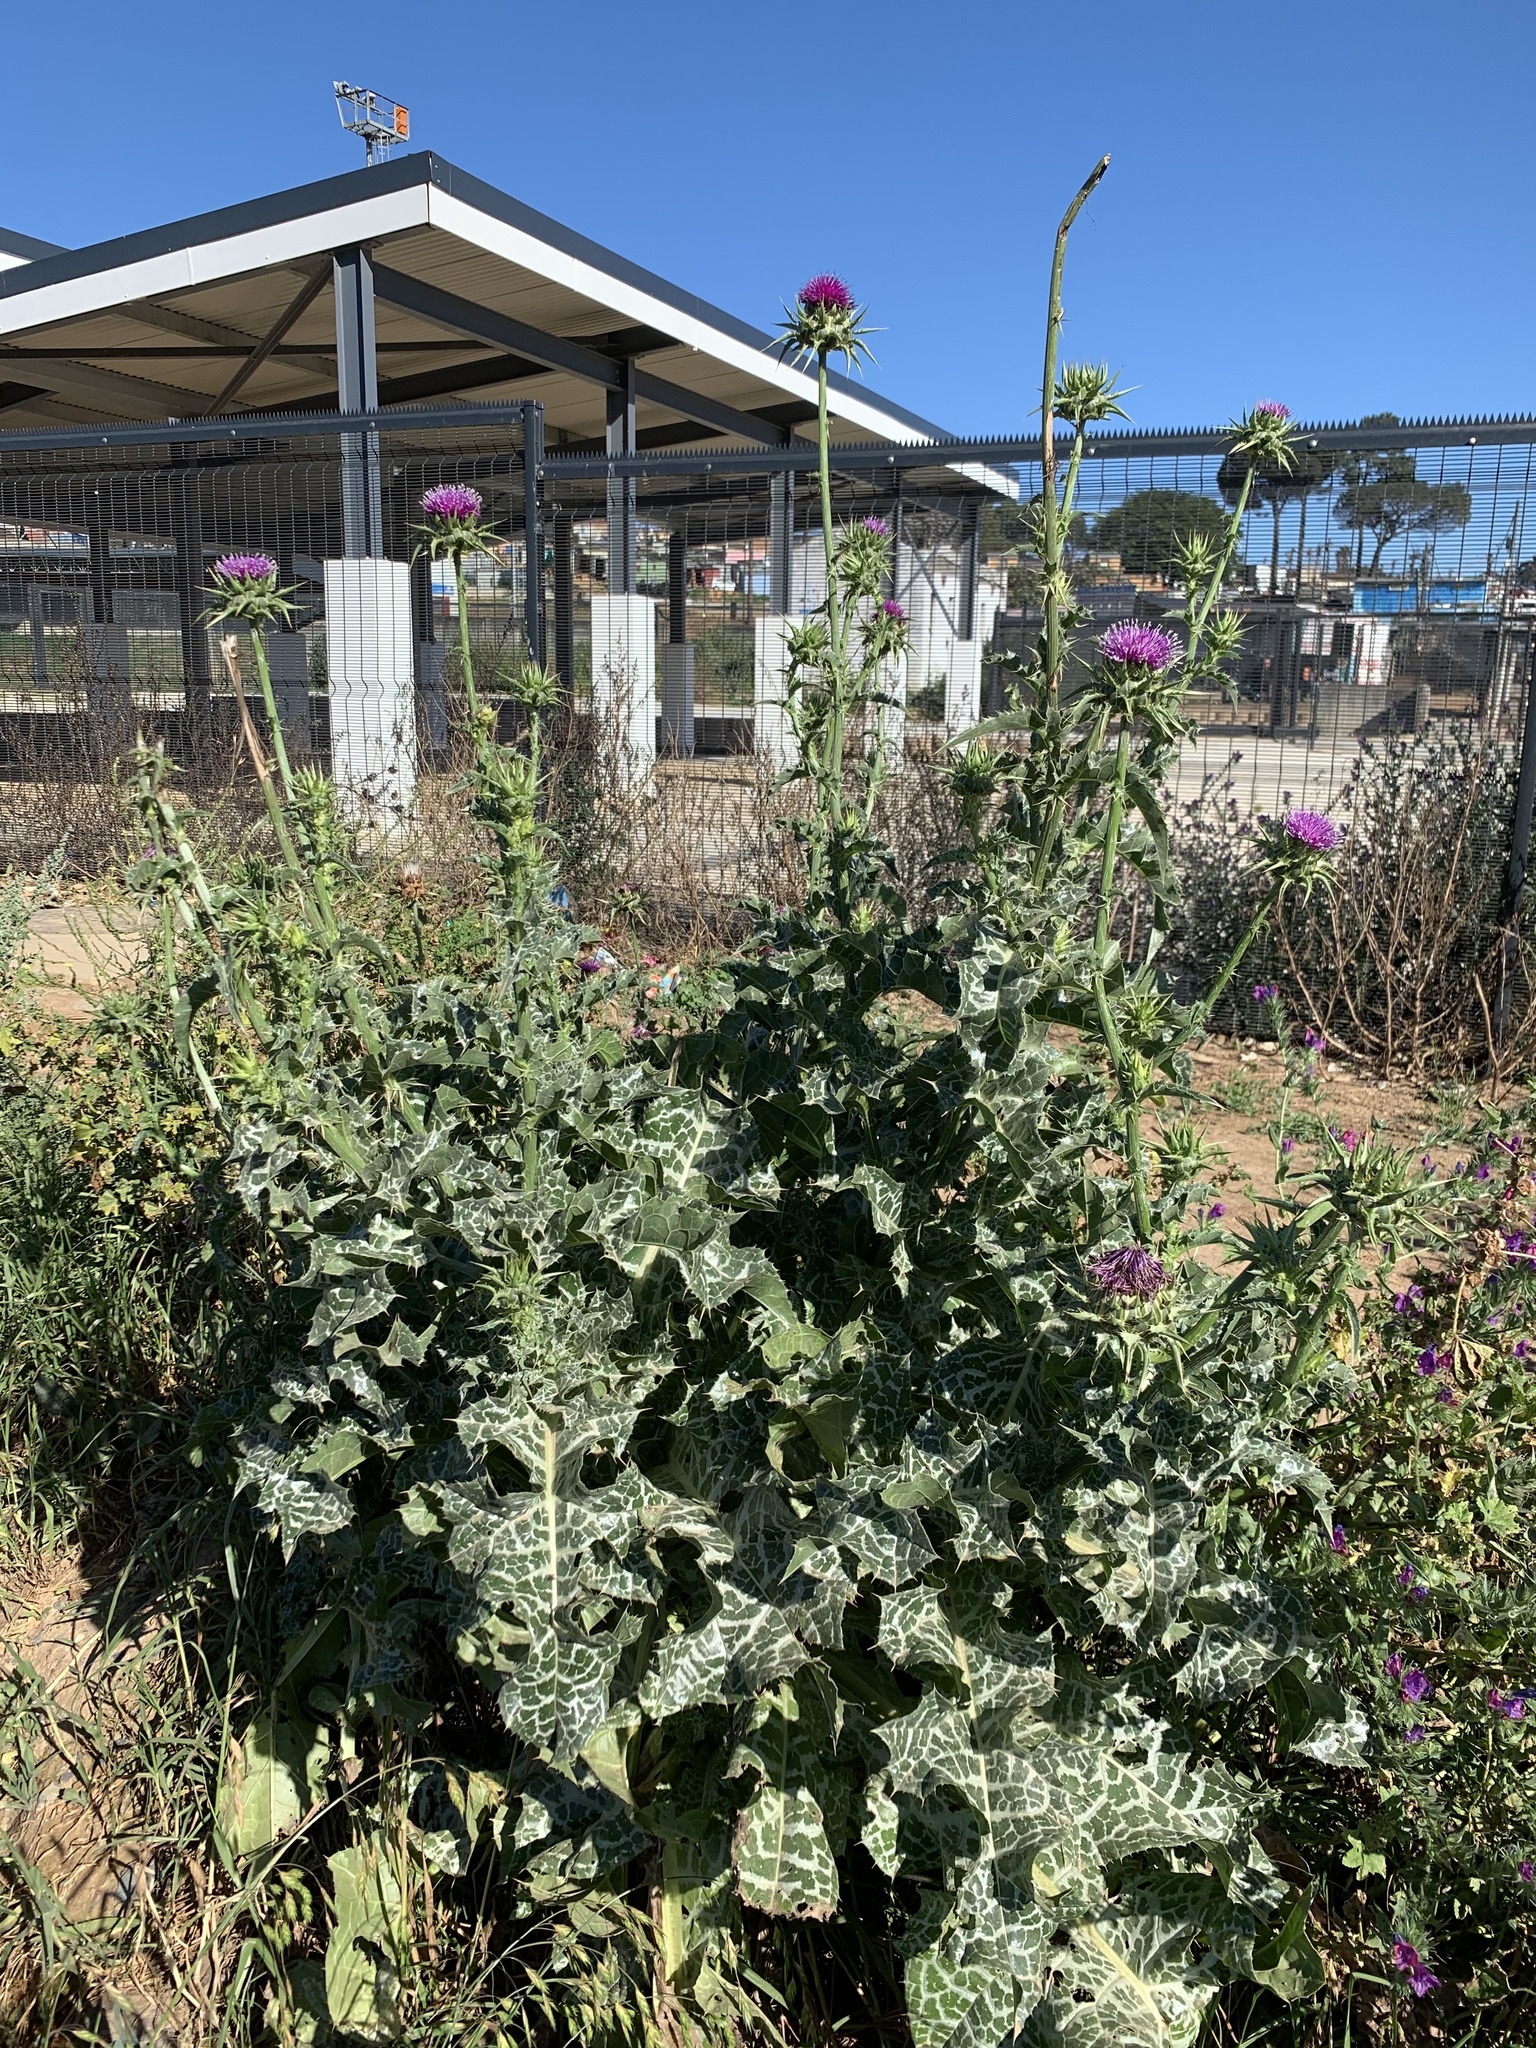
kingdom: Plantae
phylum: Tracheophyta
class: Magnoliopsida
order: Asterales
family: Asteraceae
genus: Silybum
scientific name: Silybum marianum
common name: Milk thistle
